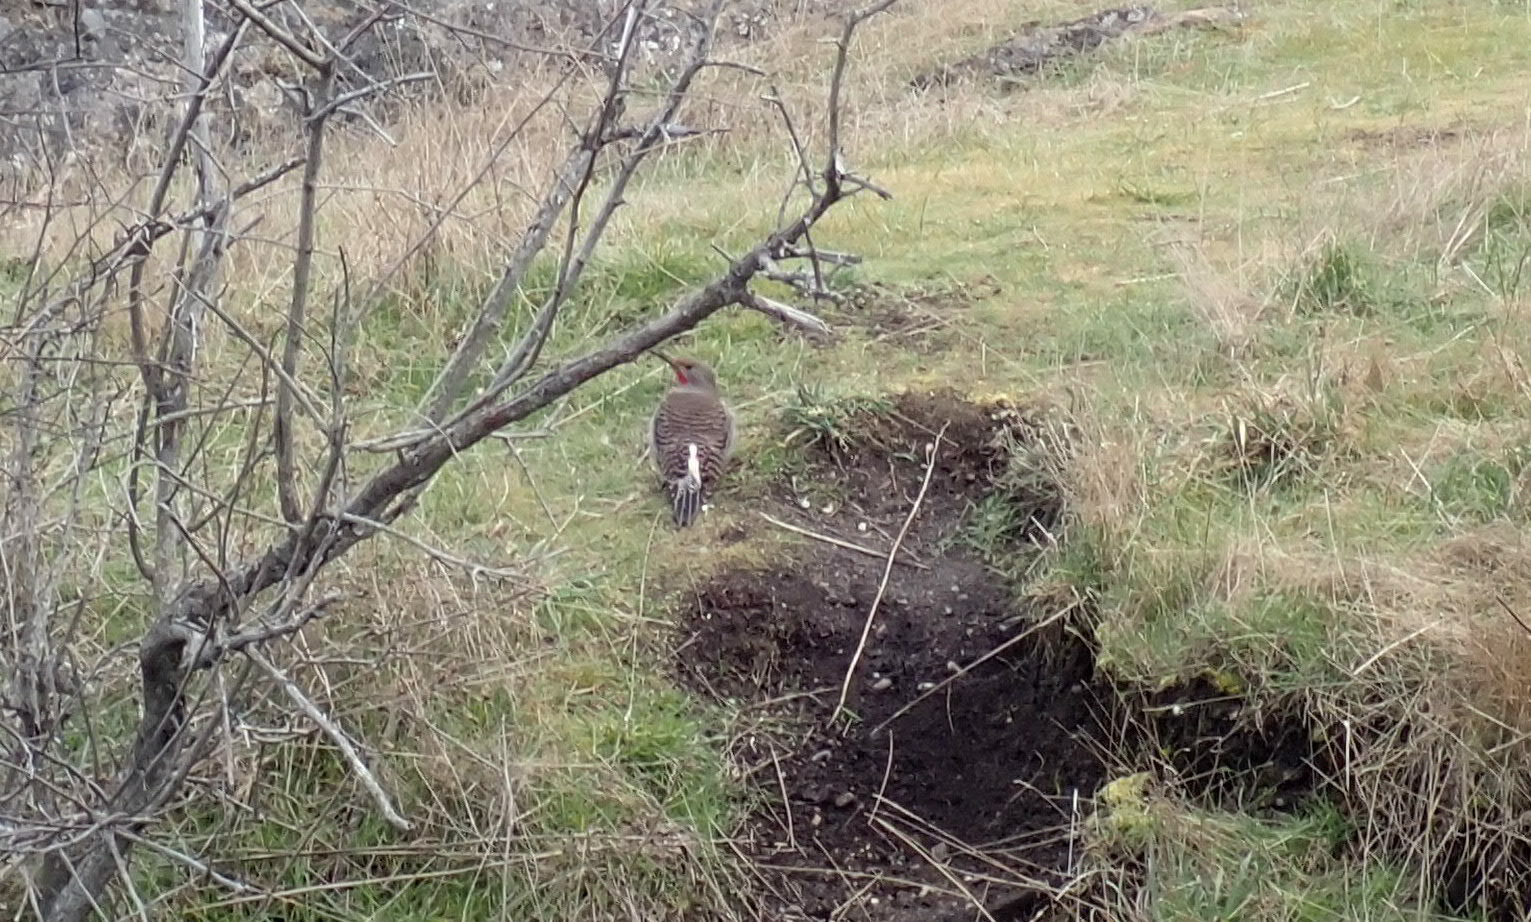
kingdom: Animalia
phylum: Chordata
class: Aves
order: Piciformes
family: Picidae
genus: Colaptes
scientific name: Colaptes auratus
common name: Northern flicker
